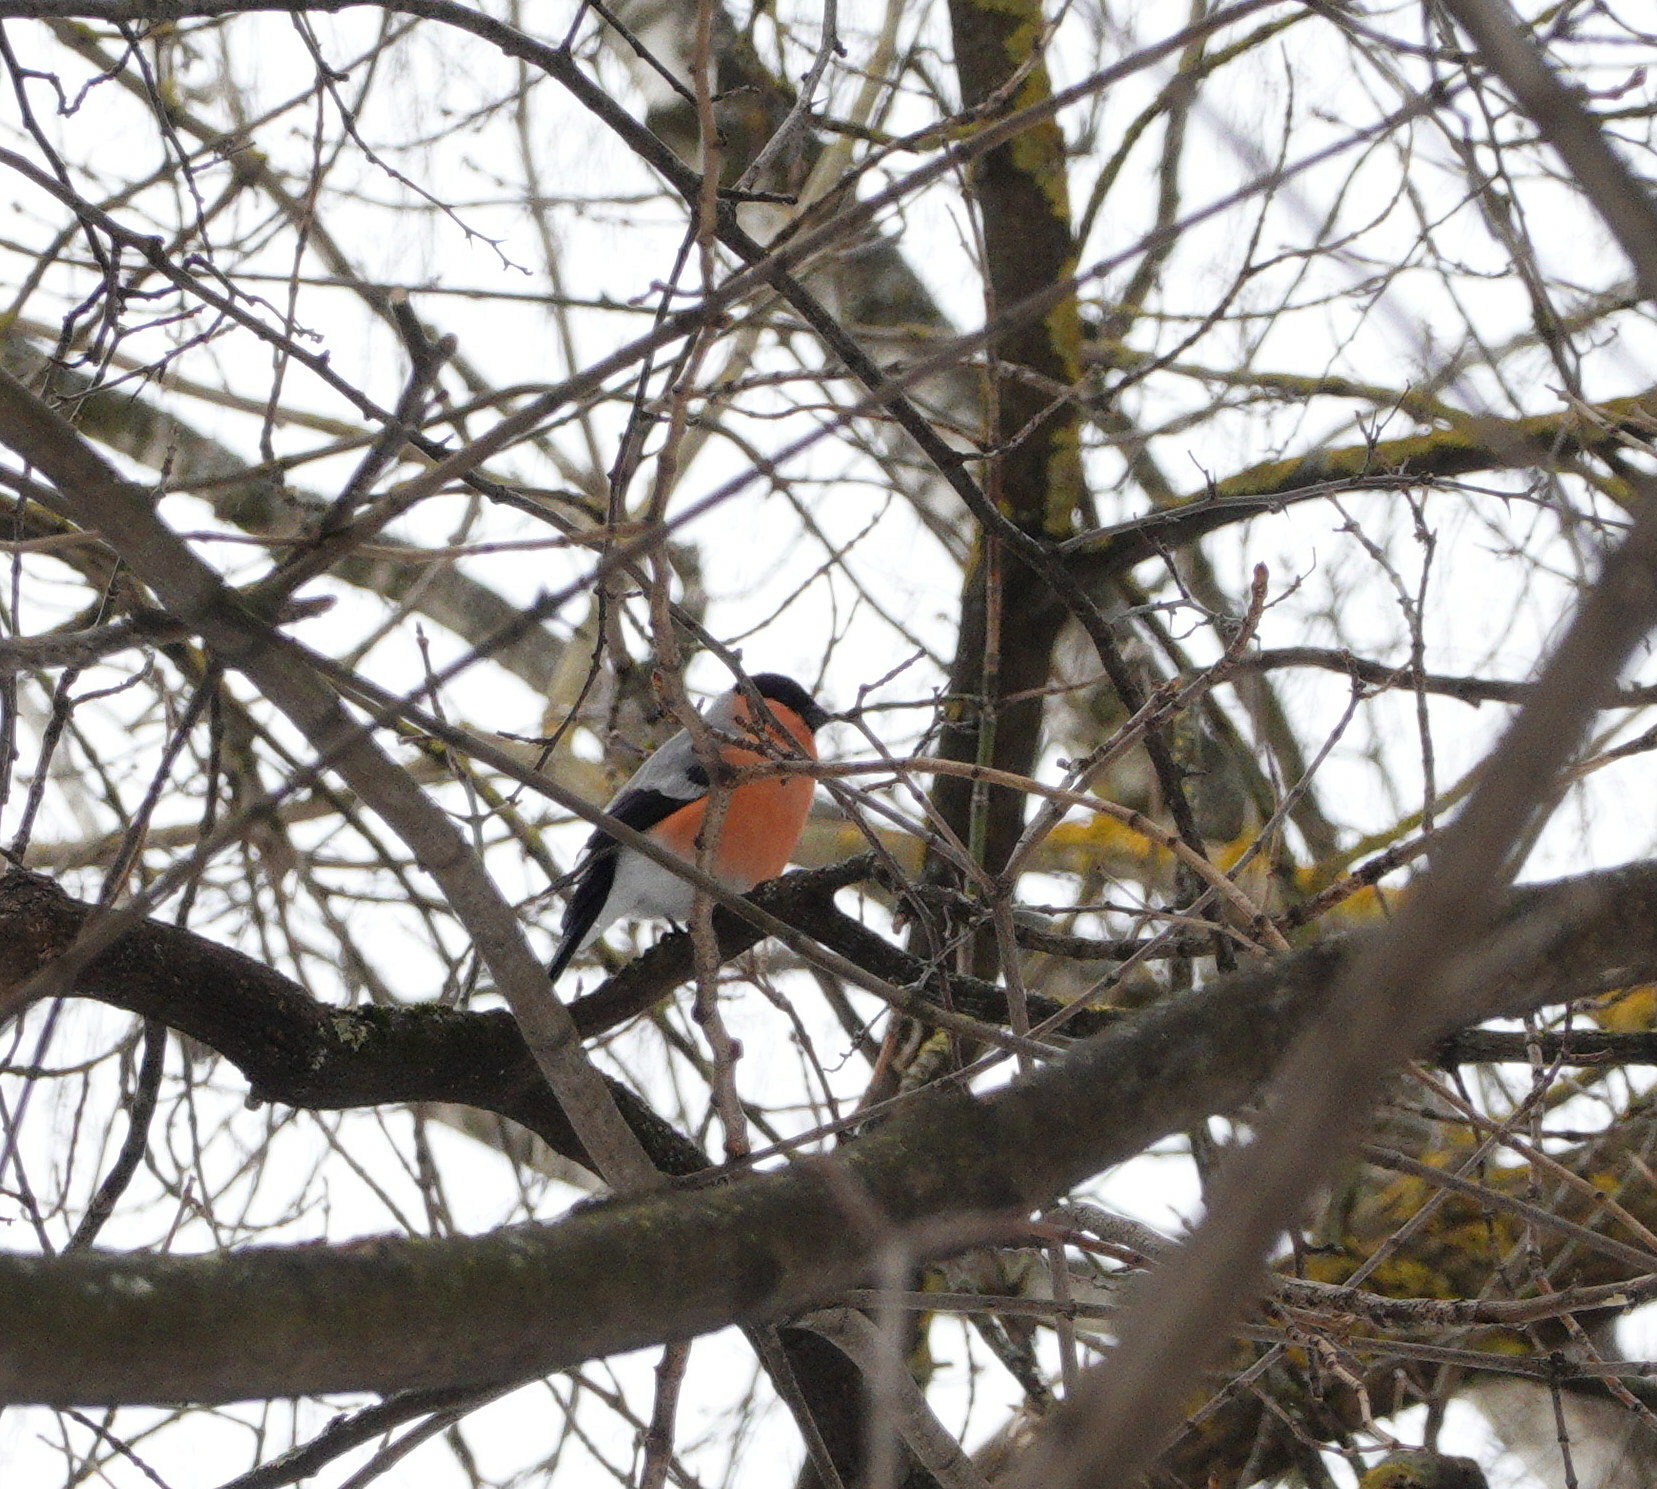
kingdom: Animalia
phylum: Chordata
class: Aves
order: Passeriformes
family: Fringillidae
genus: Pyrrhula
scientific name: Pyrrhula pyrrhula
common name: Eurasian bullfinch
